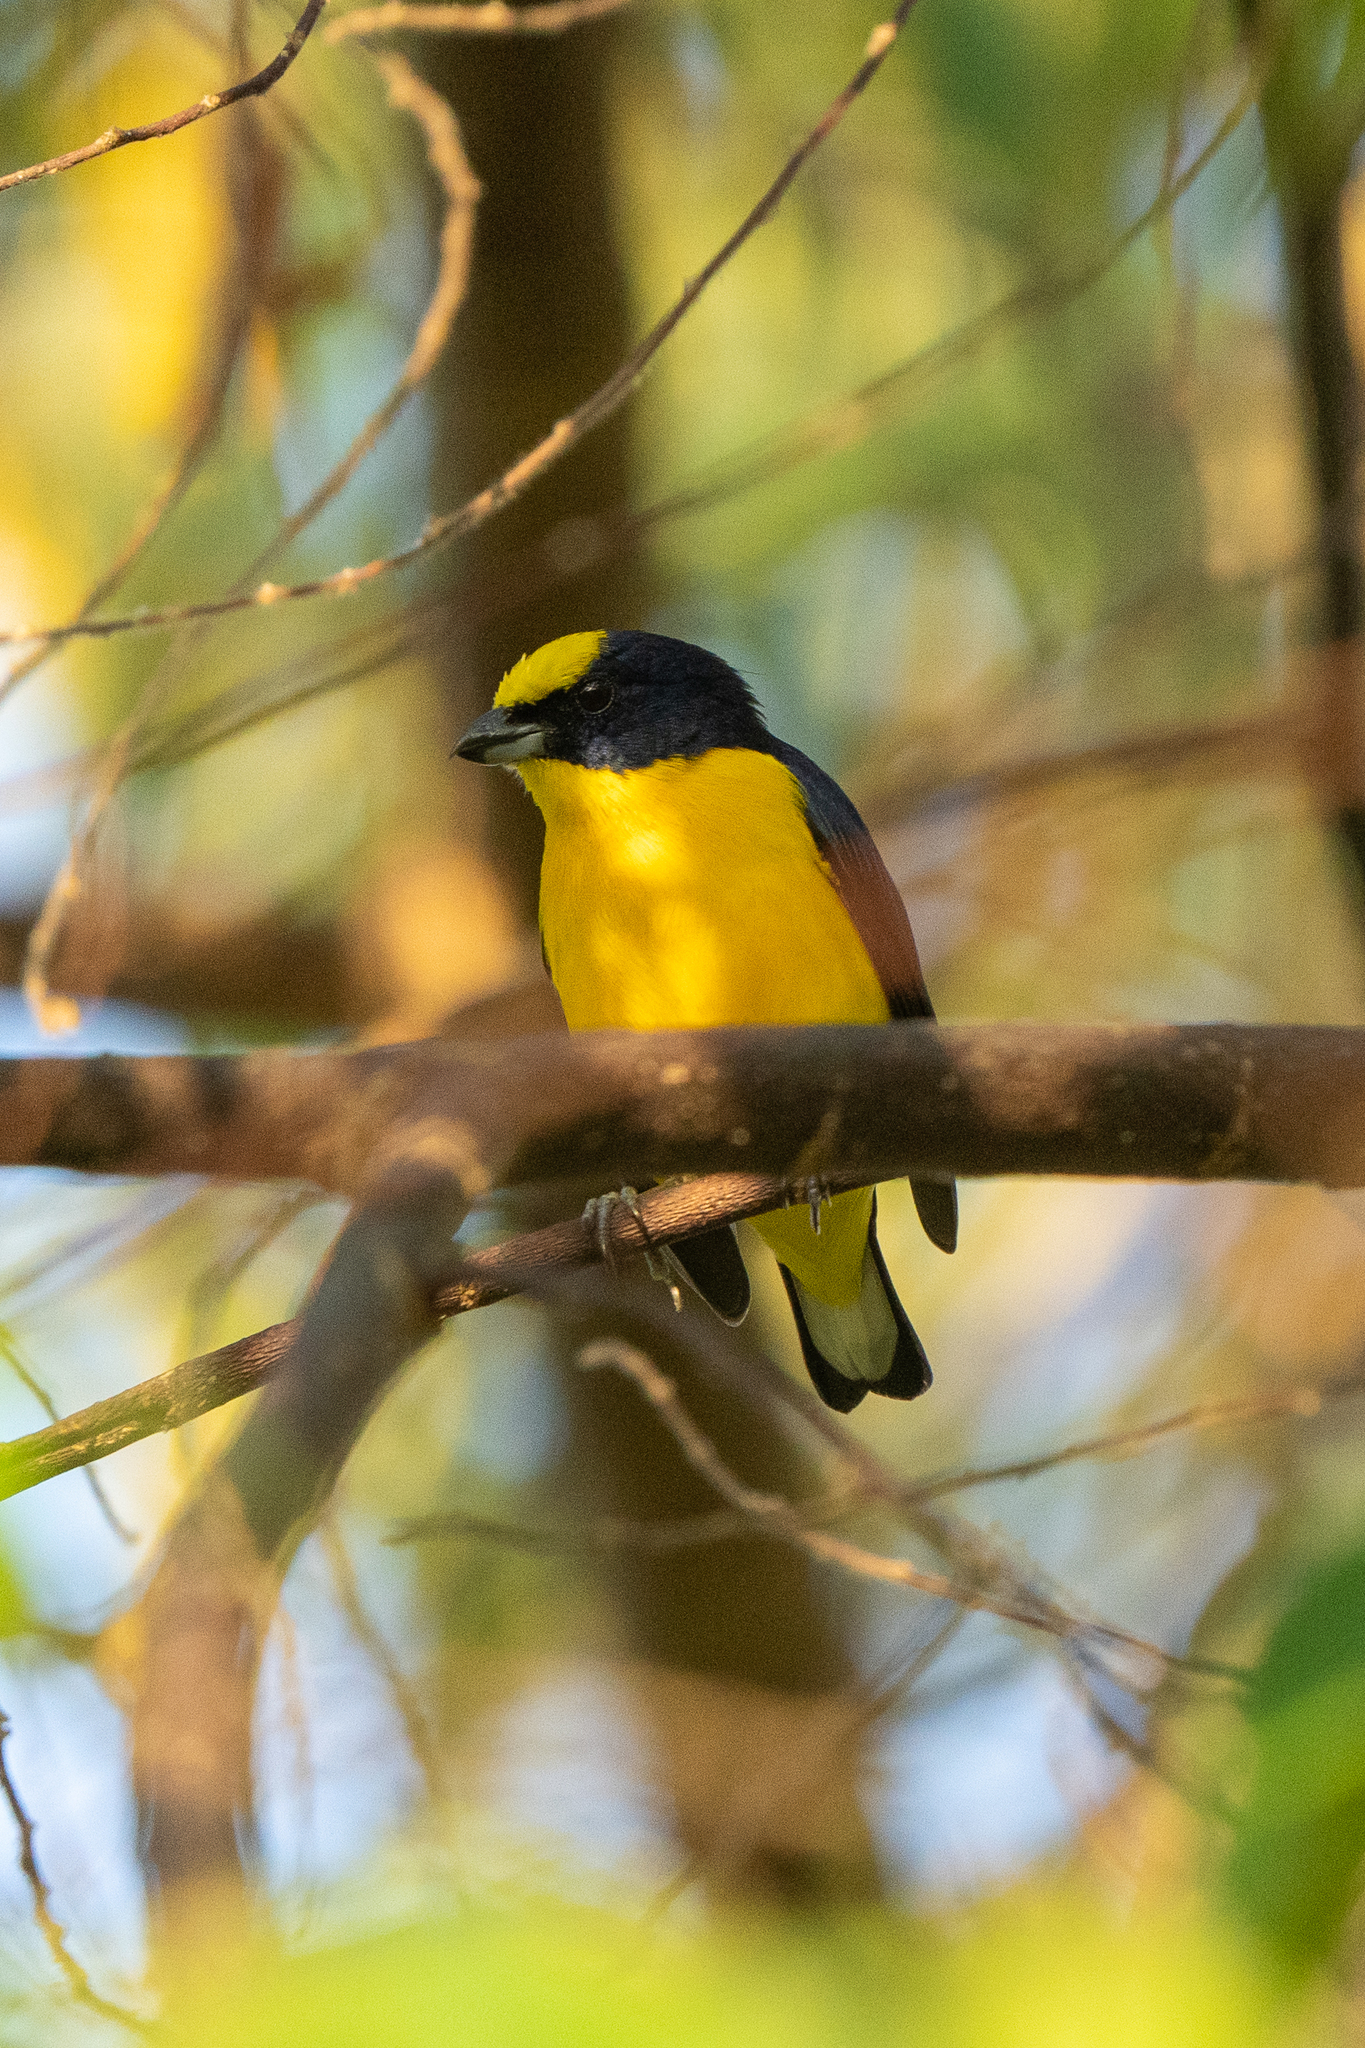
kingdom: Animalia
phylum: Chordata
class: Aves
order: Passeriformes
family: Fringillidae
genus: Euphonia
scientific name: Euphonia laniirostris
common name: Thick-billed euphonia
